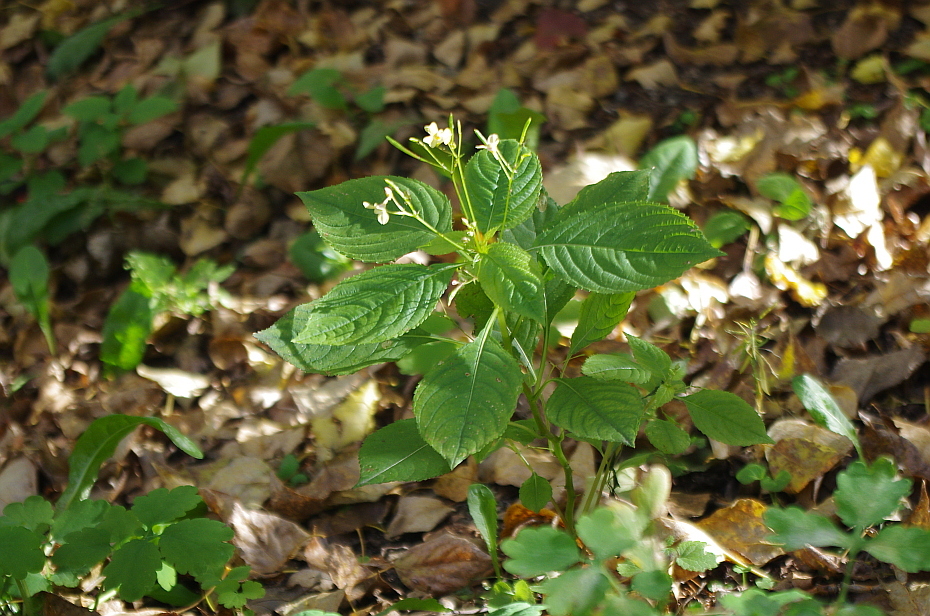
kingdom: Plantae
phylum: Tracheophyta
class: Magnoliopsida
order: Ericales
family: Balsaminaceae
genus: Impatiens
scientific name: Impatiens parviflora
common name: Small balsam
